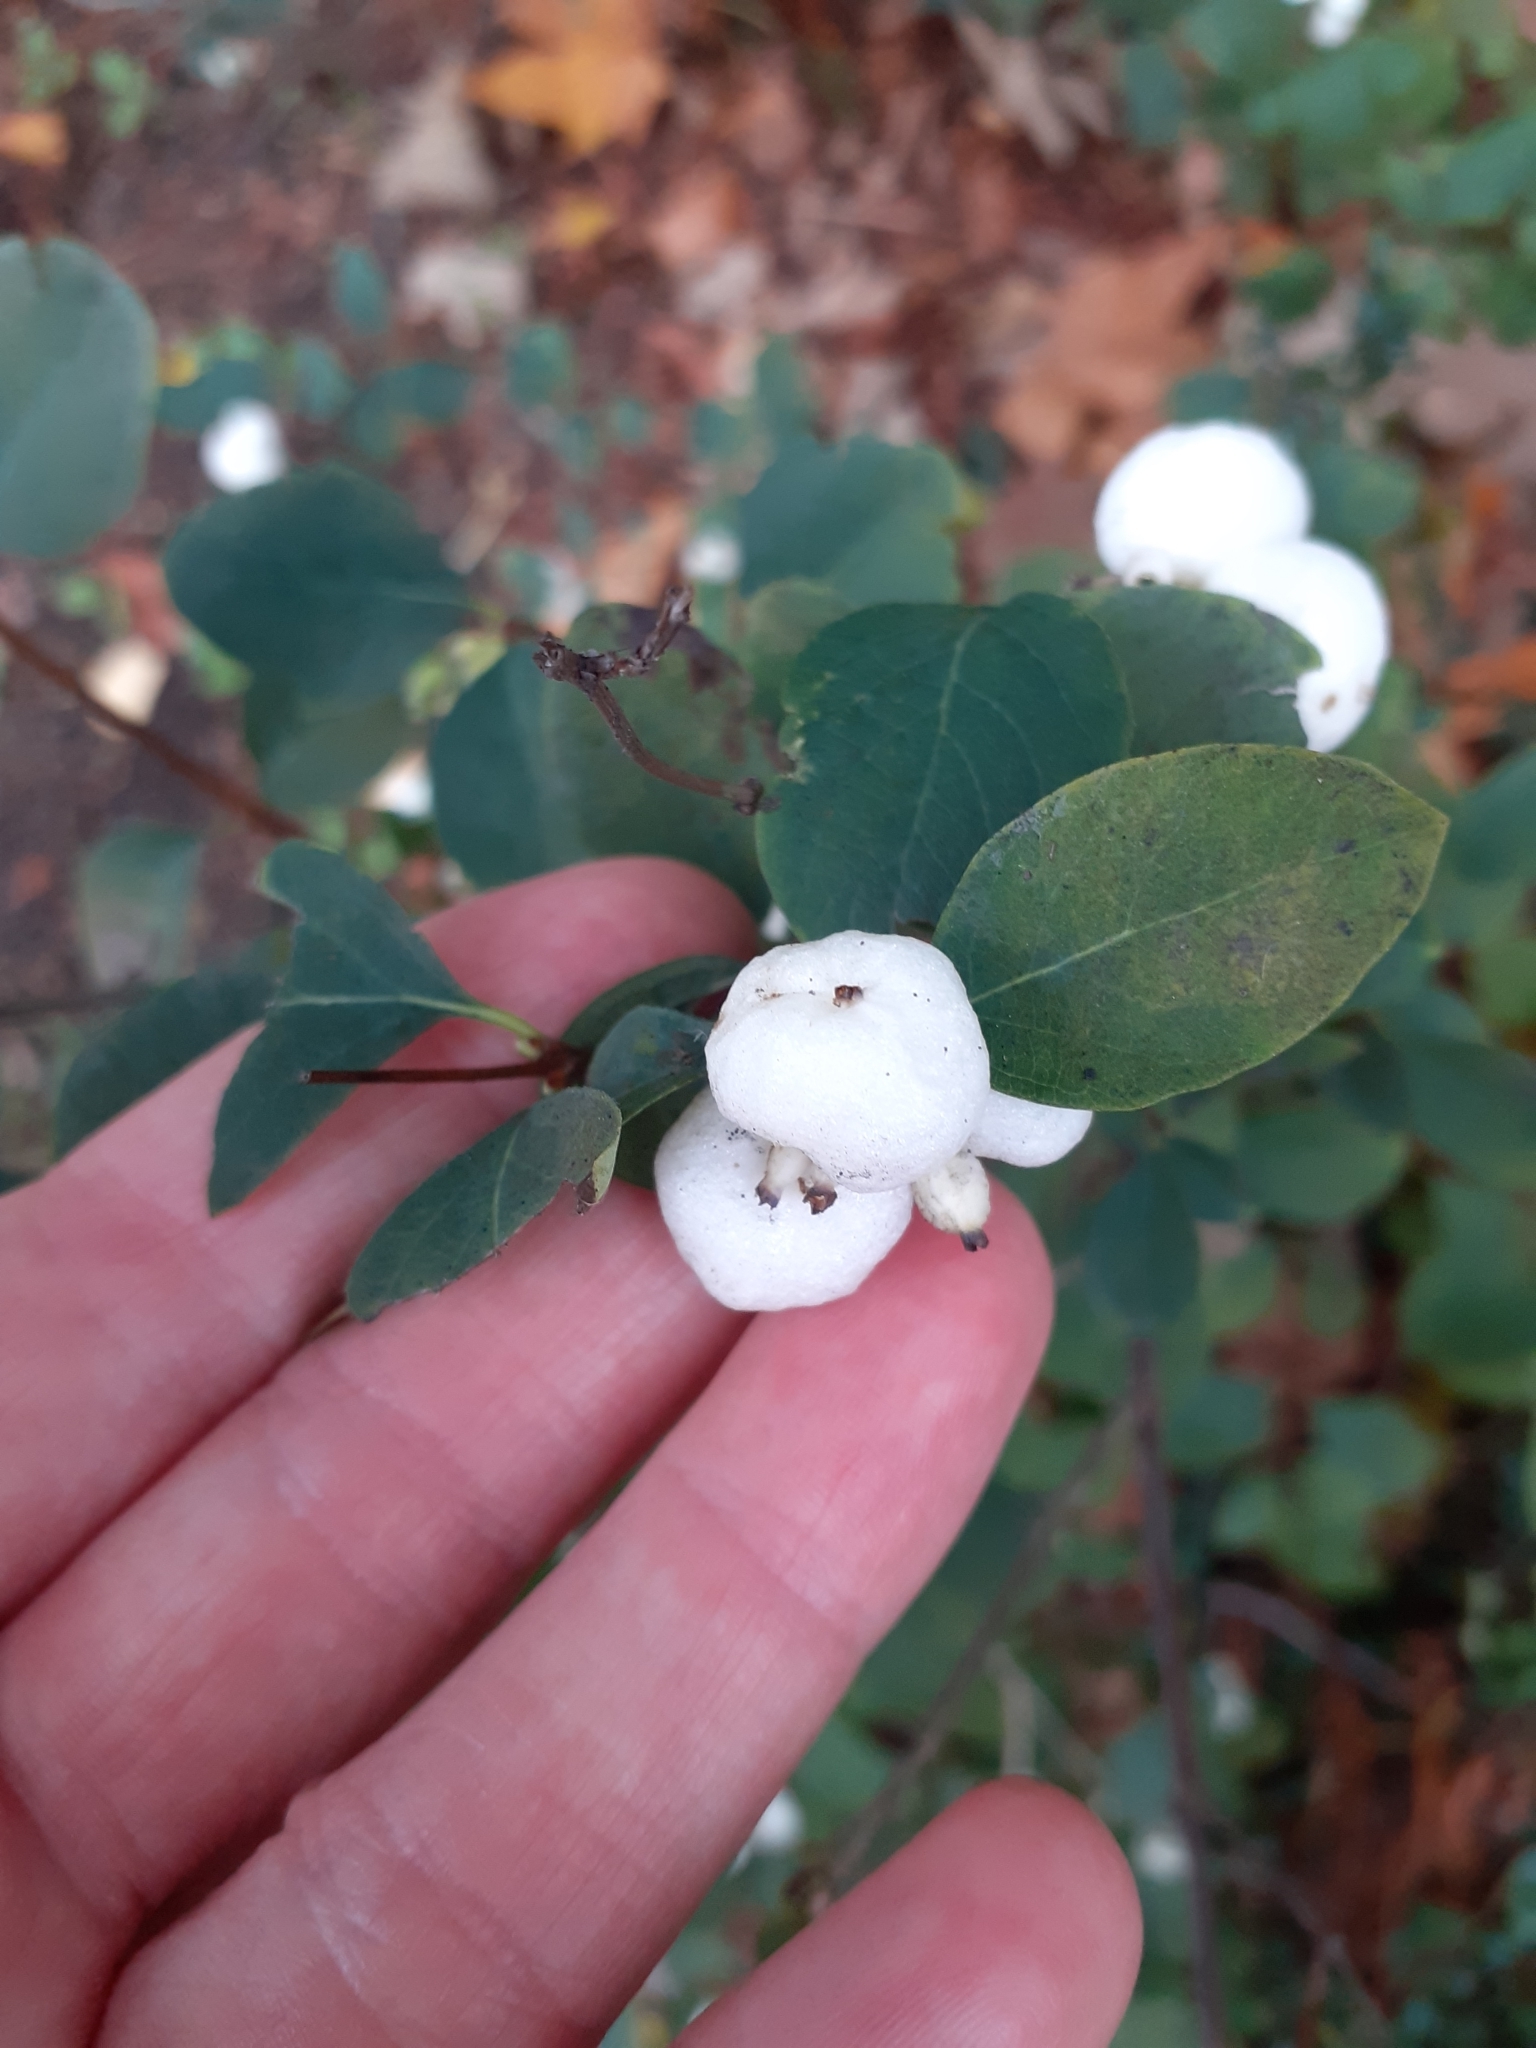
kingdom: Plantae
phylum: Tracheophyta
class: Magnoliopsida
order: Dipsacales
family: Caprifoliaceae
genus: Symphoricarpos
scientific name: Symphoricarpos albus
